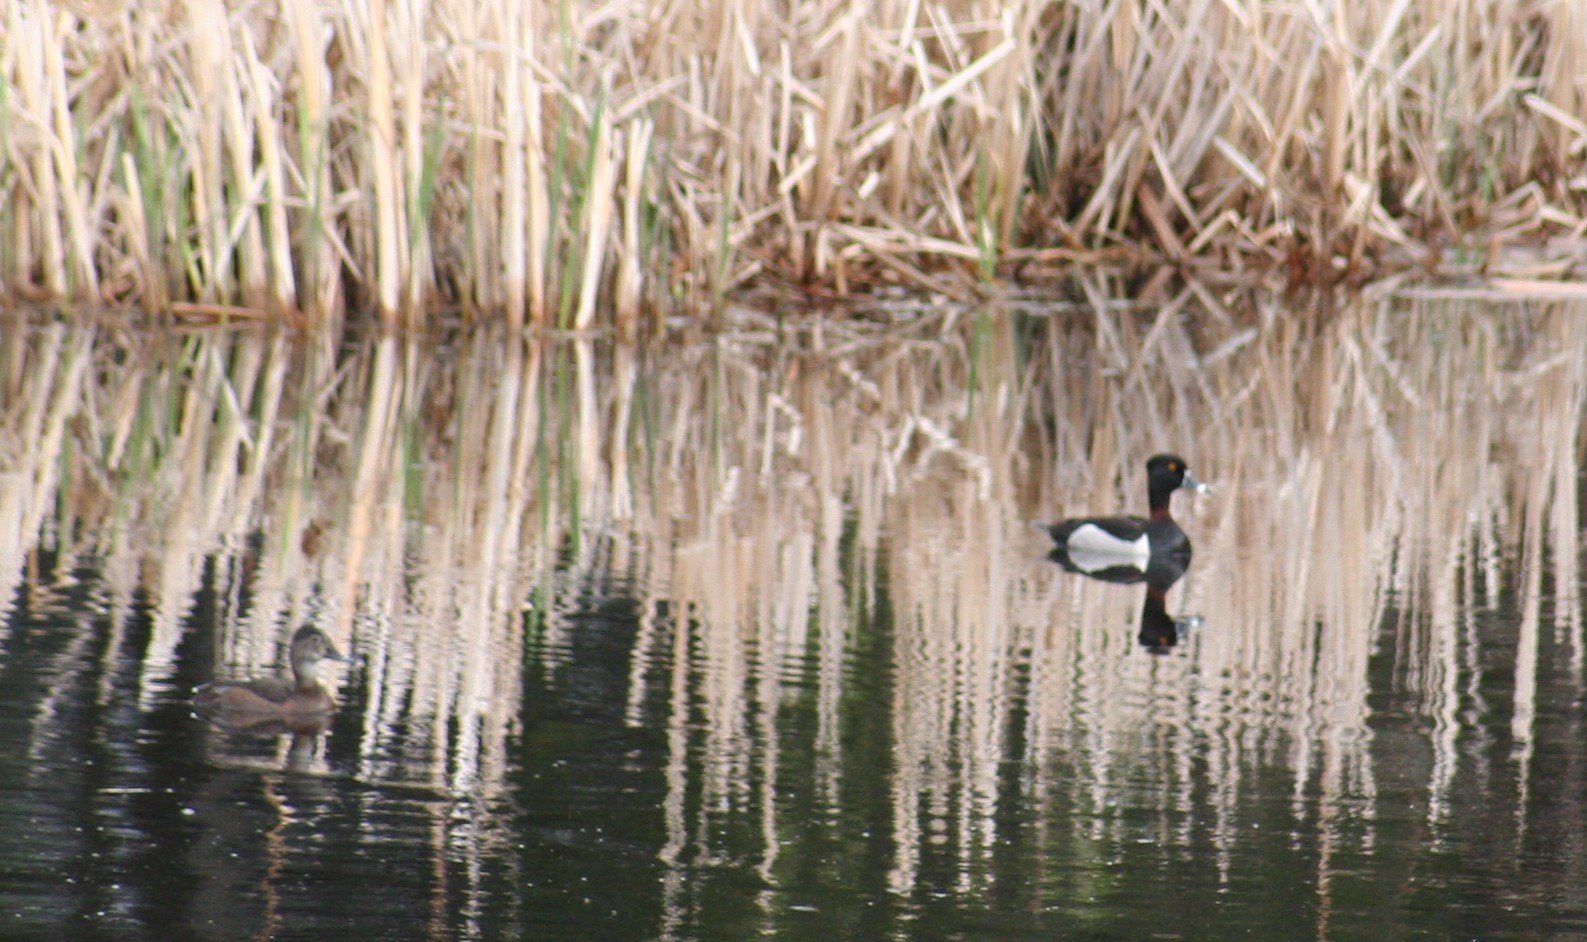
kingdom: Animalia
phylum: Chordata
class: Aves
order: Anseriformes
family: Anatidae
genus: Aythya
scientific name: Aythya collaris
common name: Ring-necked duck
